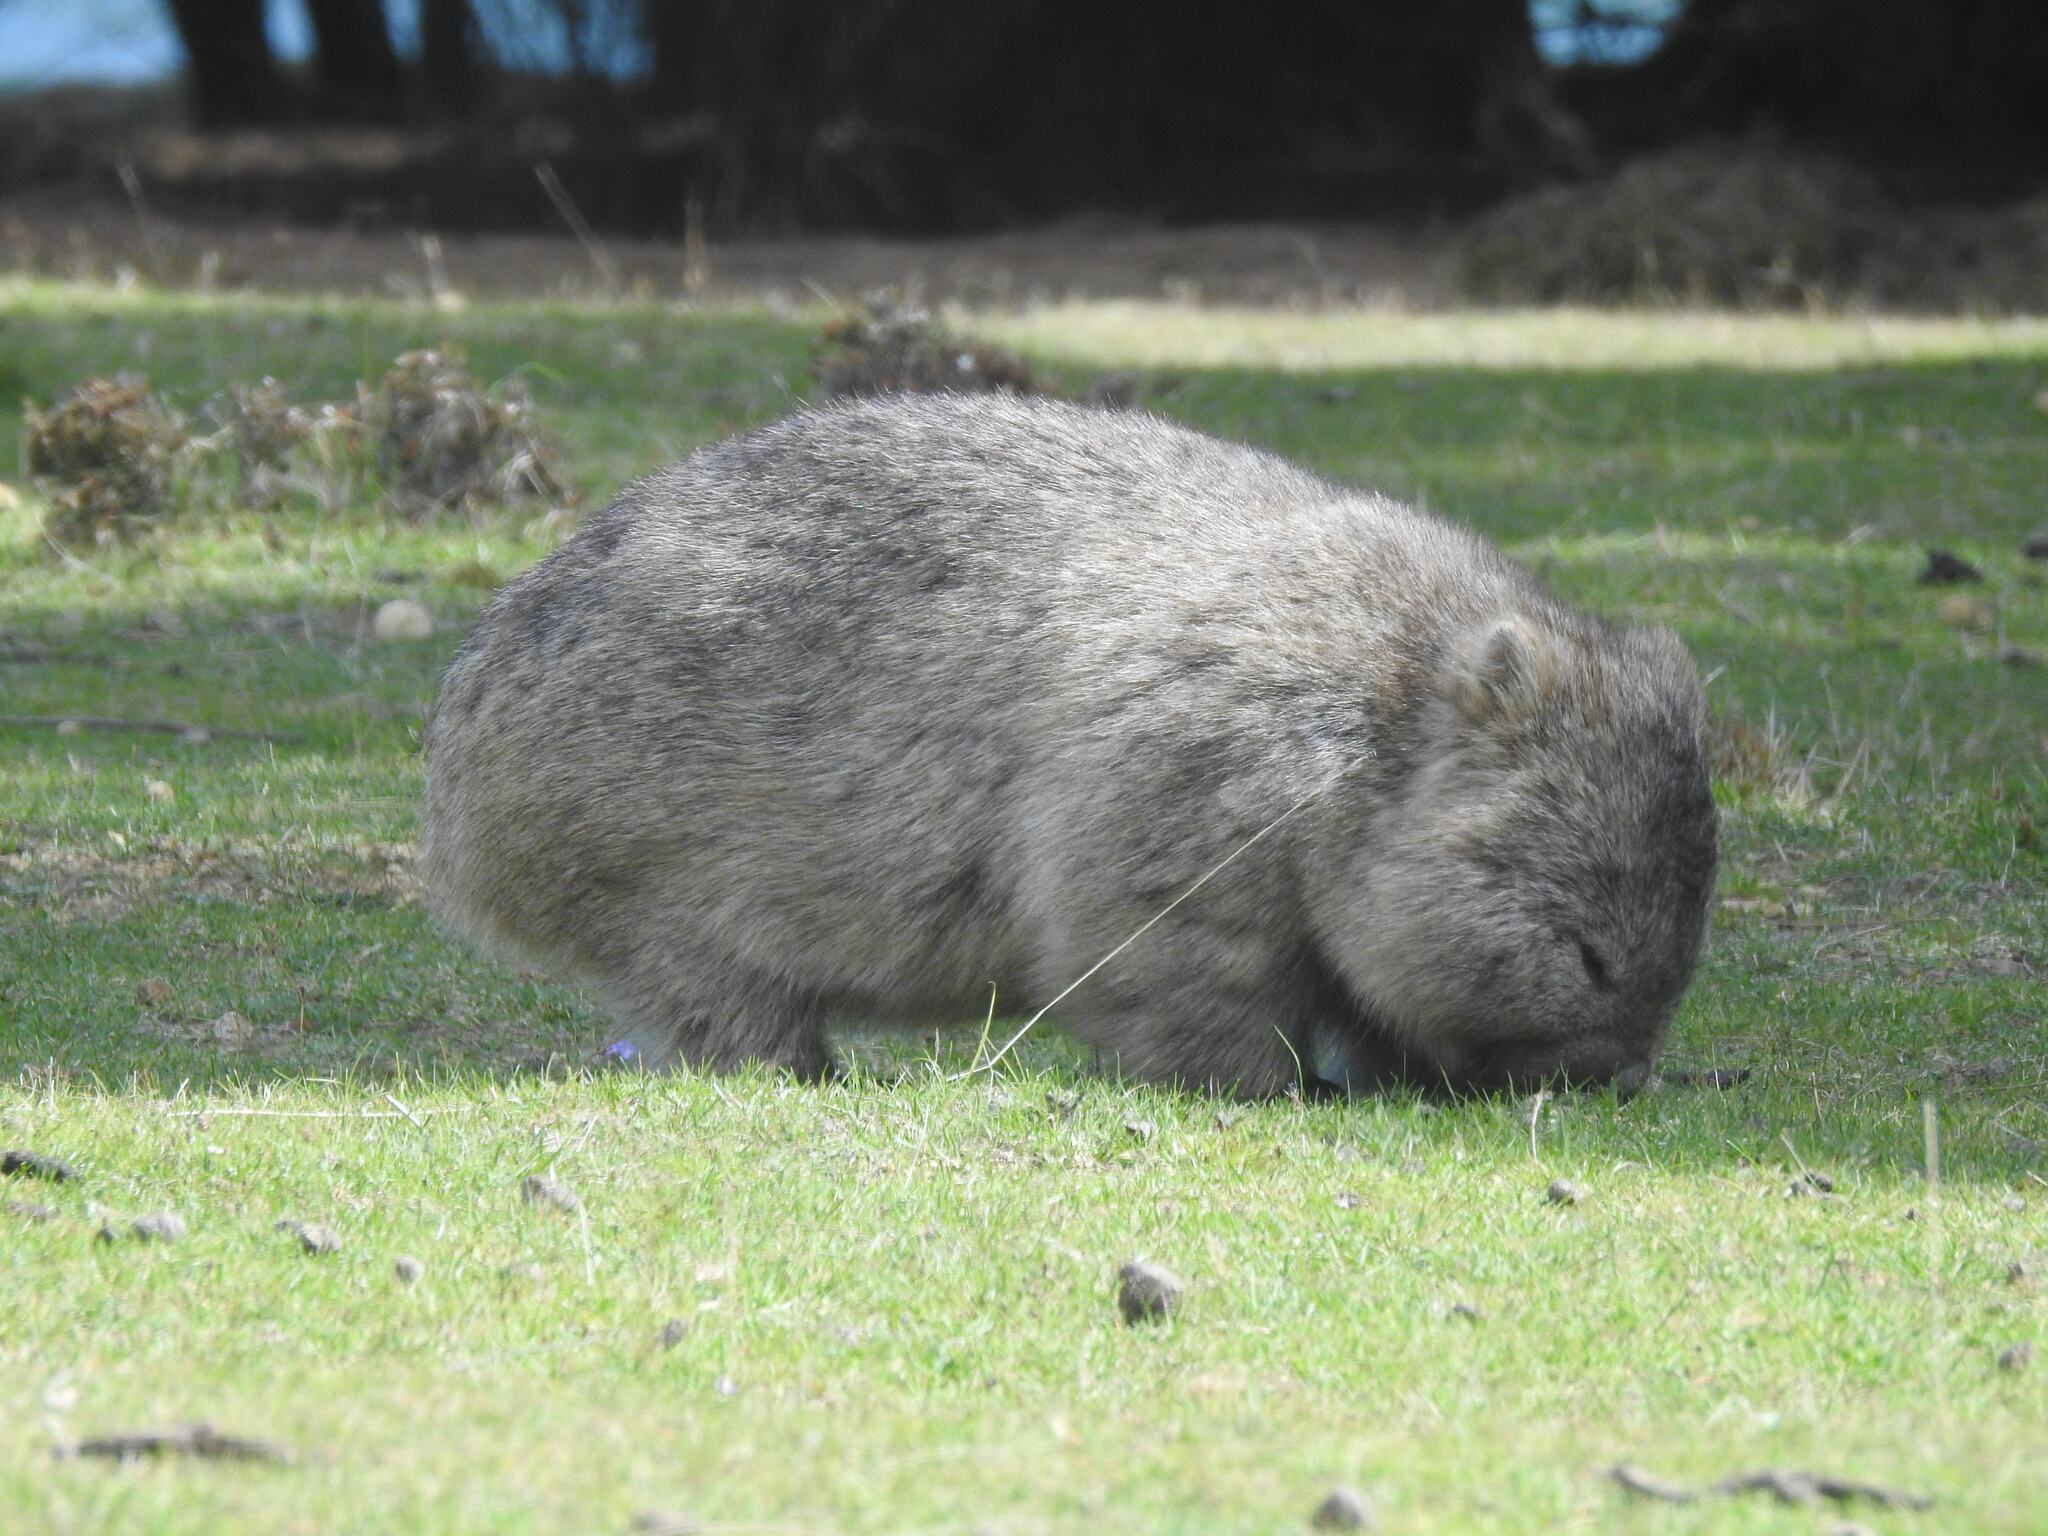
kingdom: Animalia
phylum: Chordata
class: Mammalia
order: Diprotodontia
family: Vombatidae
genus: Vombatus
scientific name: Vombatus ursinus
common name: Common wombat
